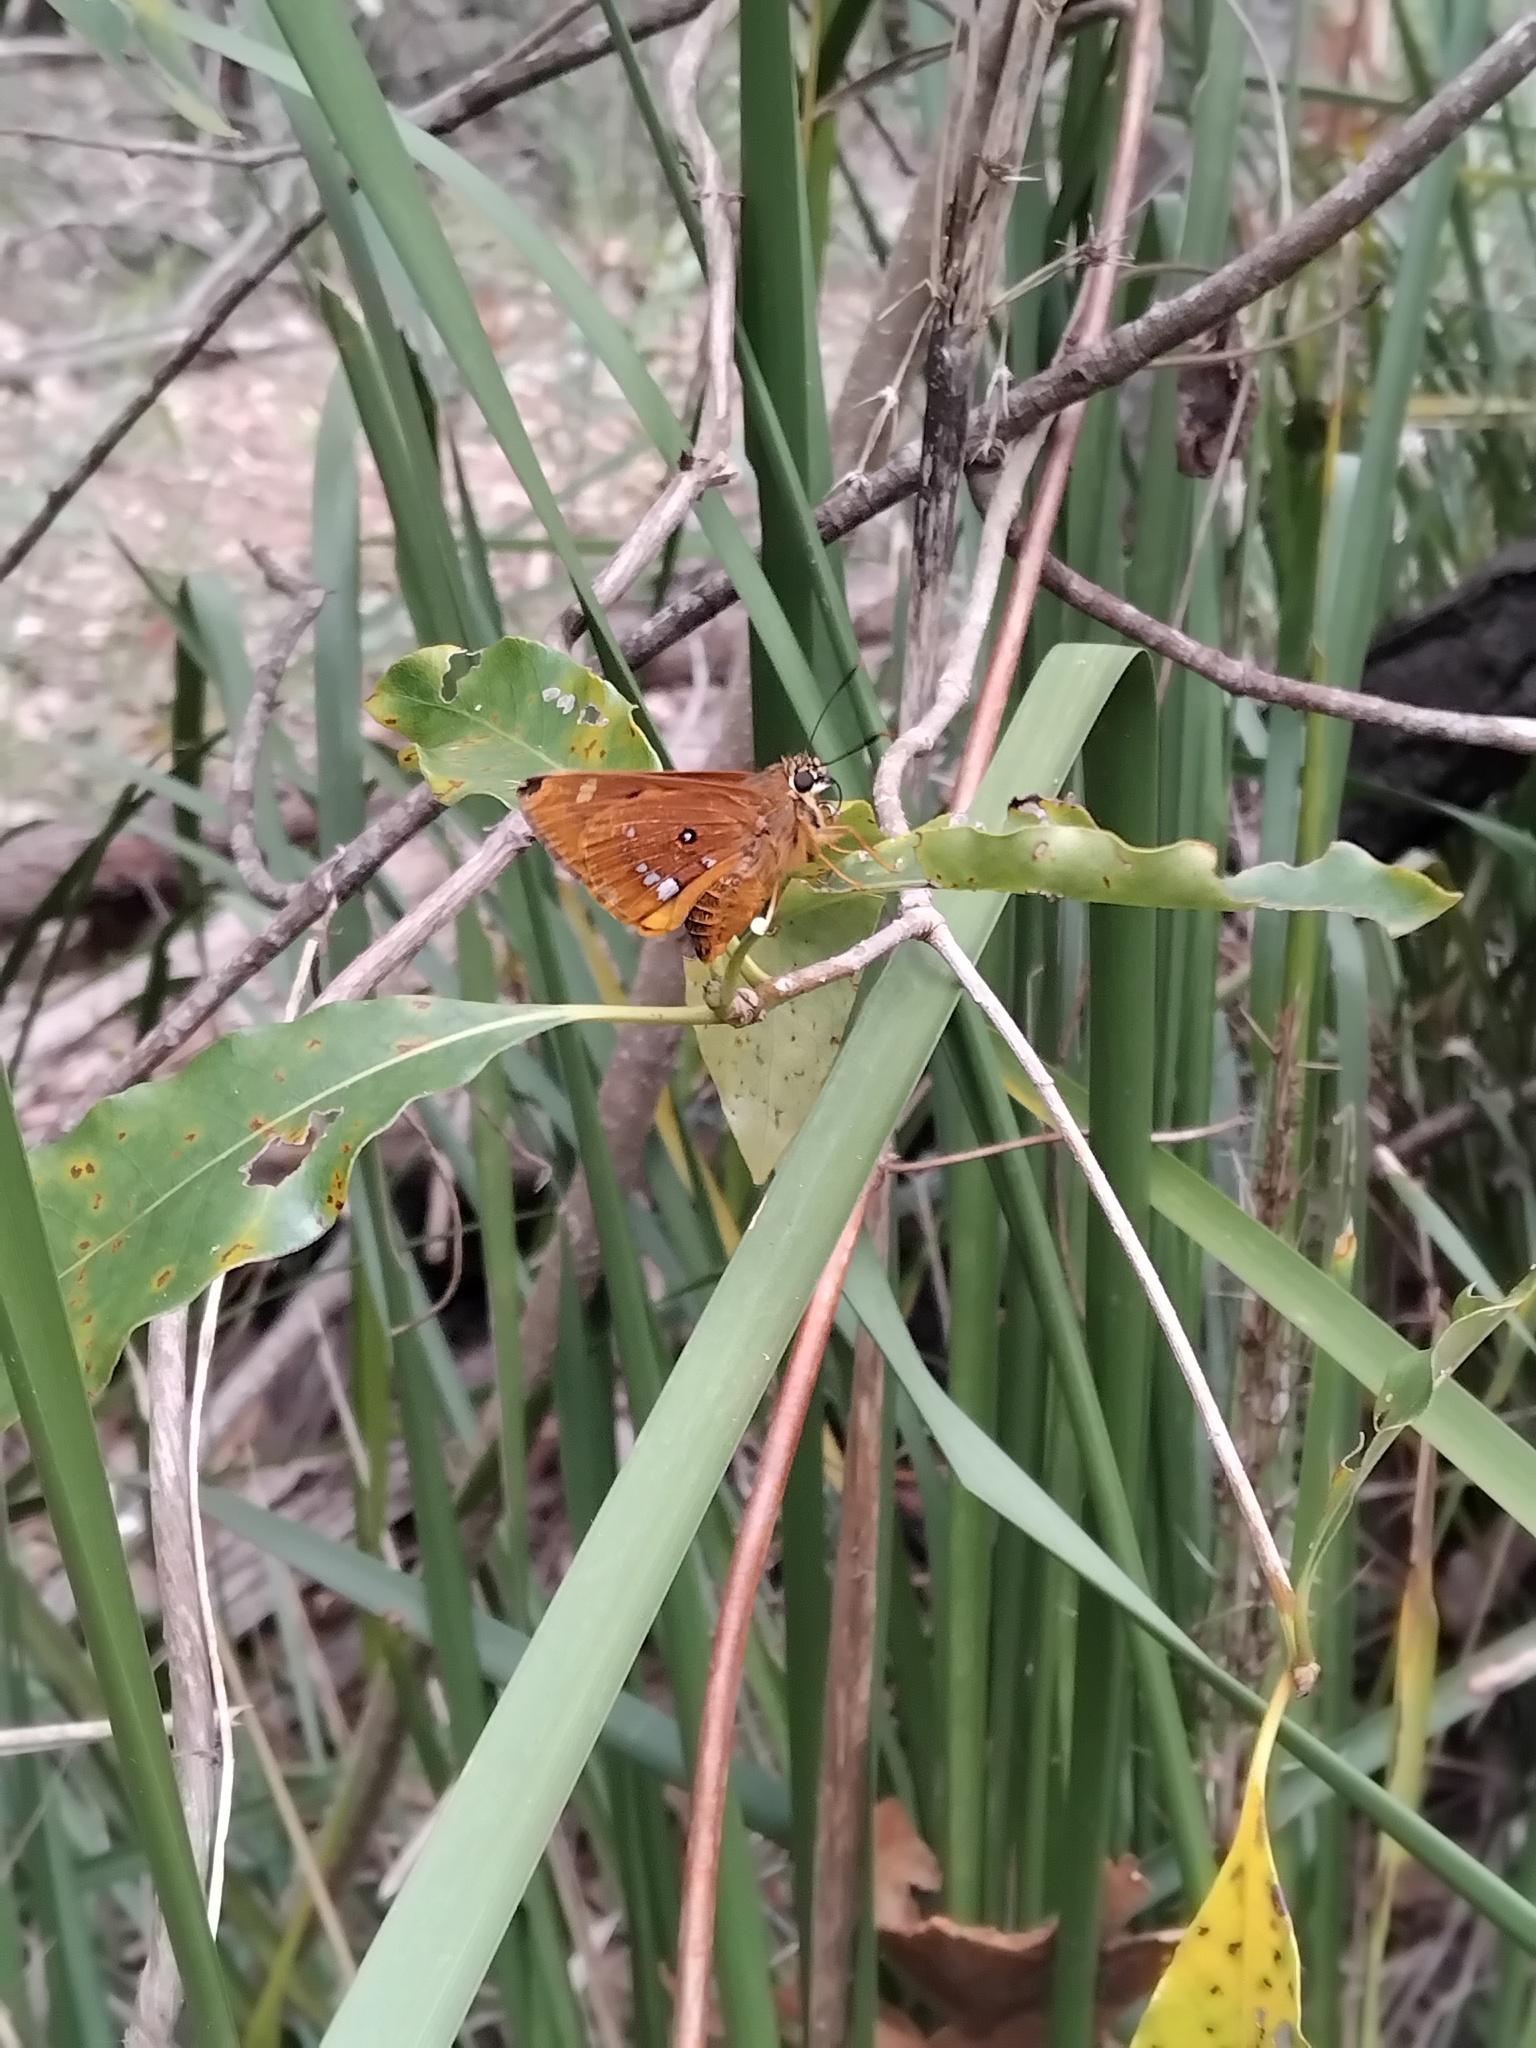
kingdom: Animalia
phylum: Arthropoda
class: Insecta
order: Lepidoptera
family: Hesperiidae
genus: Trapezites
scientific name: Trapezites symmomus
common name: Splendid ochre
